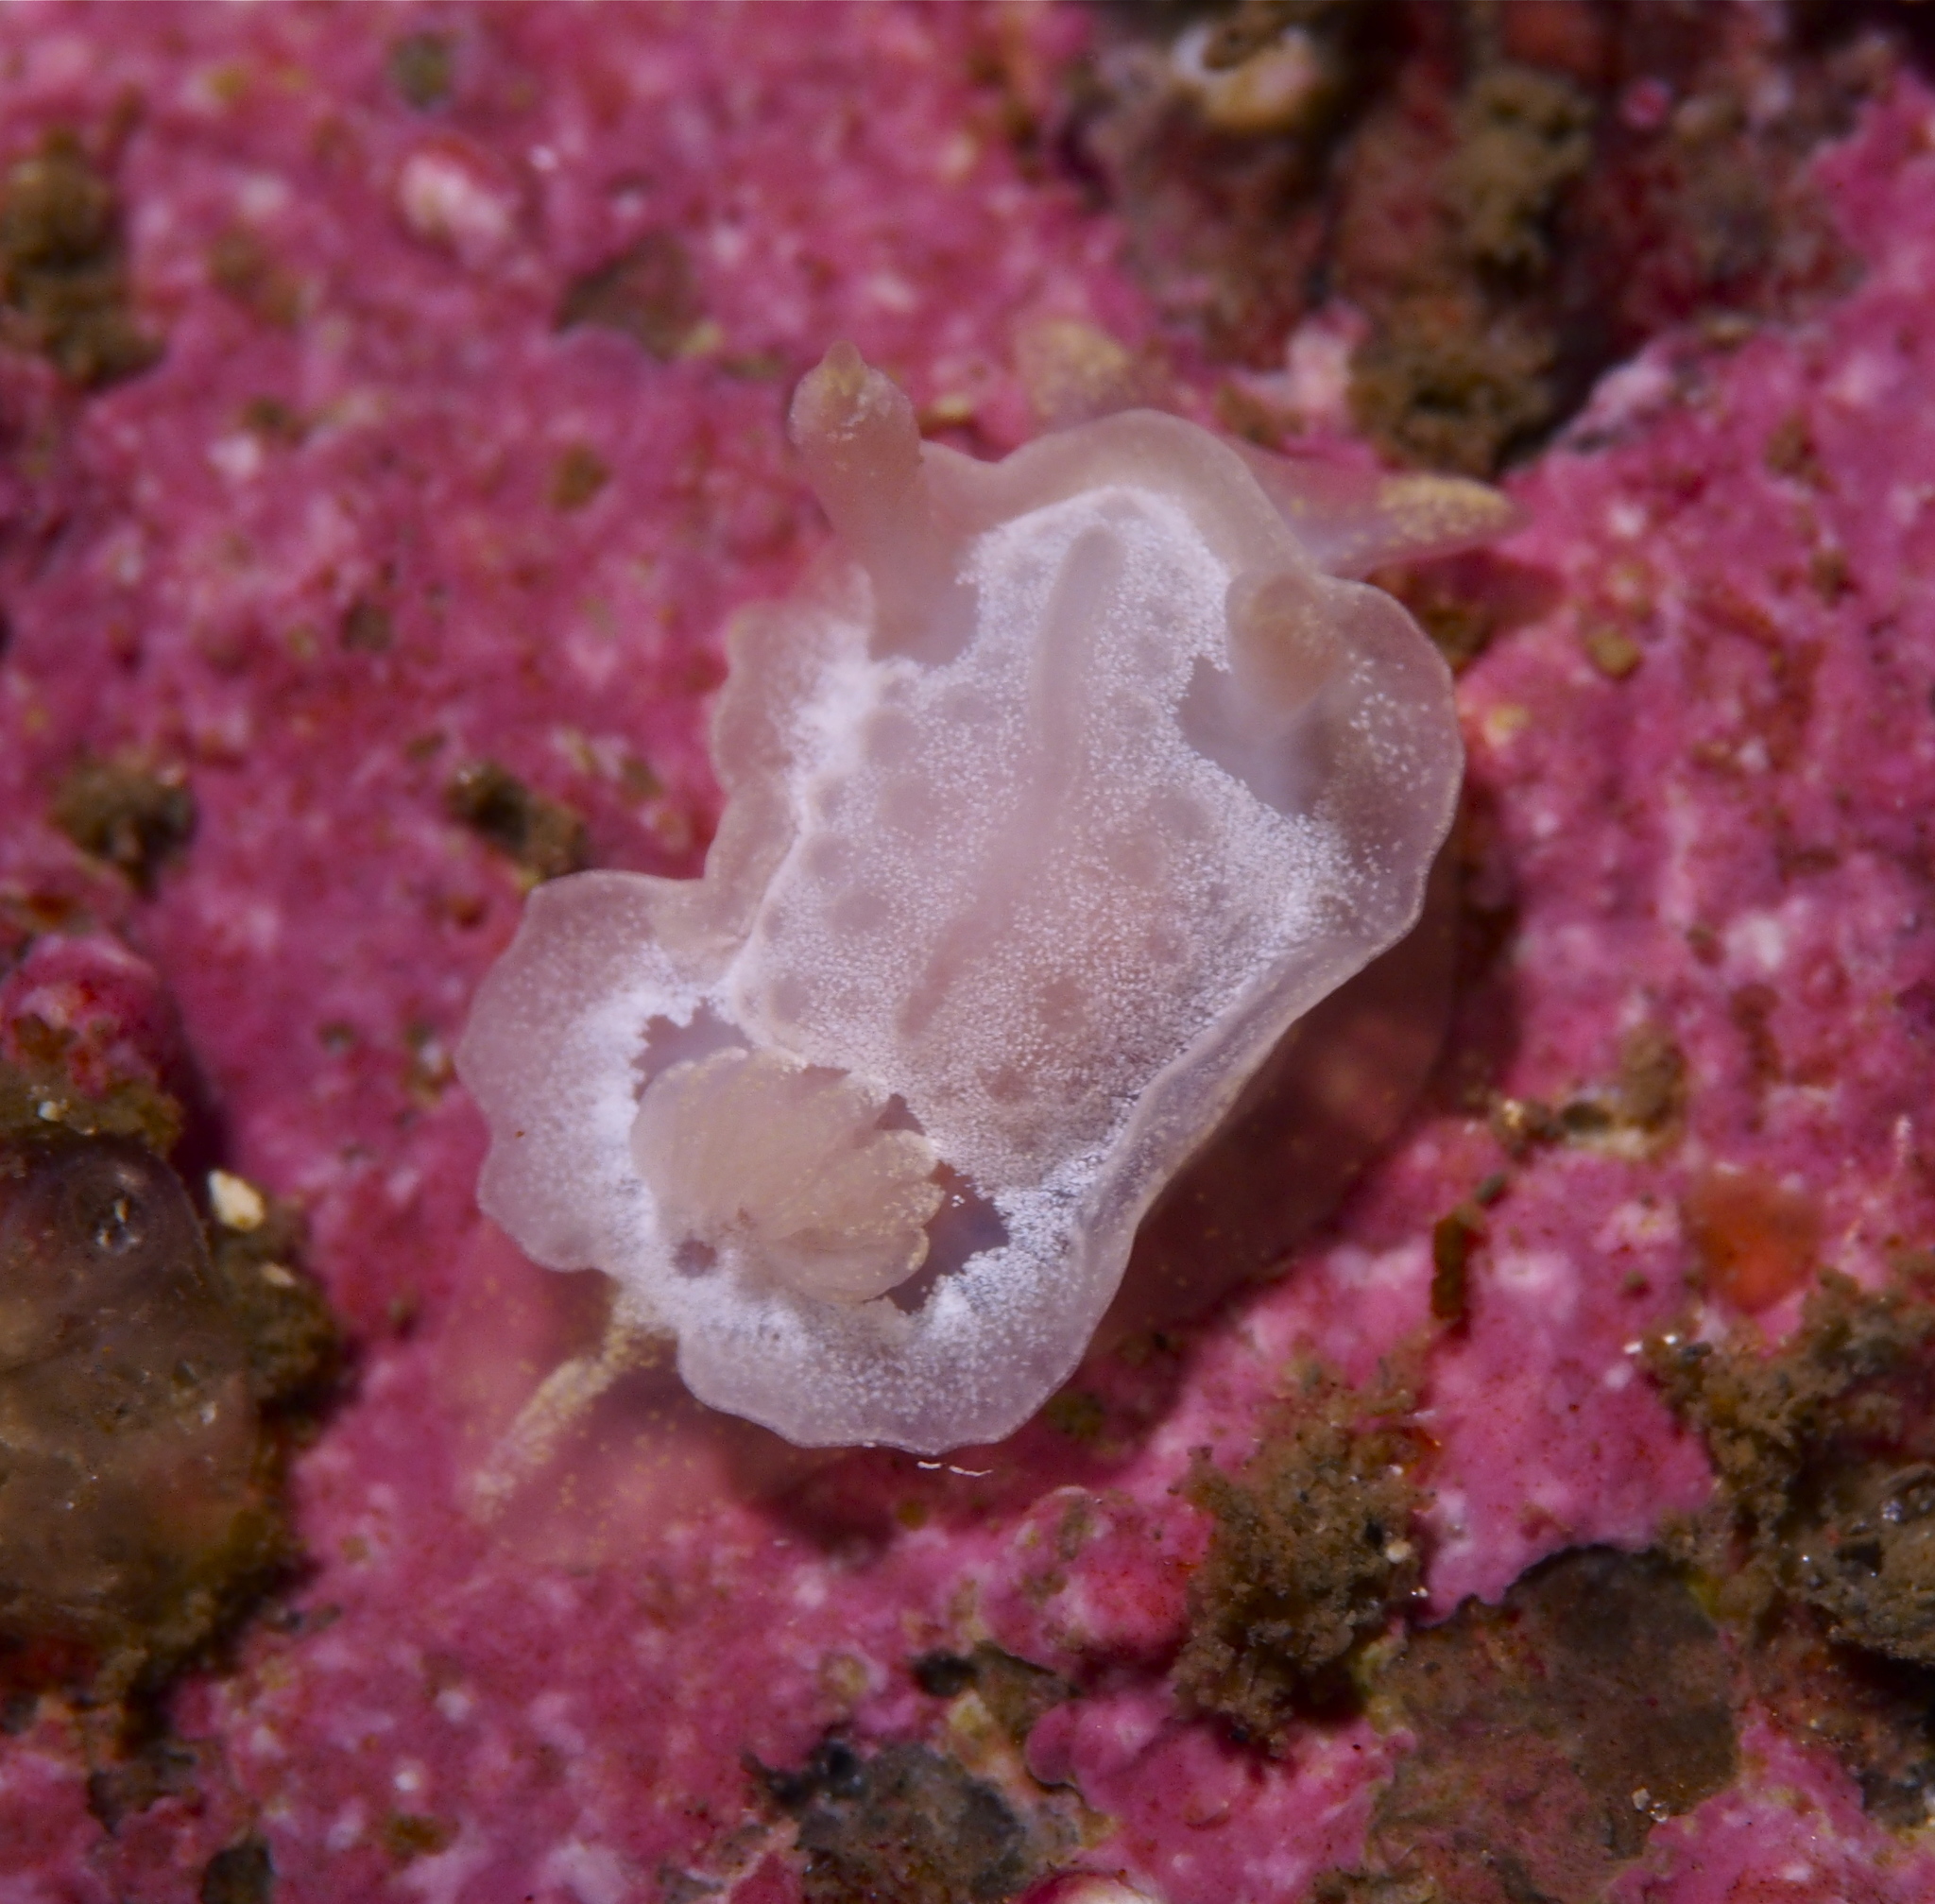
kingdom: Animalia
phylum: Mollusca
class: Gastropoda
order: Nudibranchia
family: Goniodorididae
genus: Okenia
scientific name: Okenia
